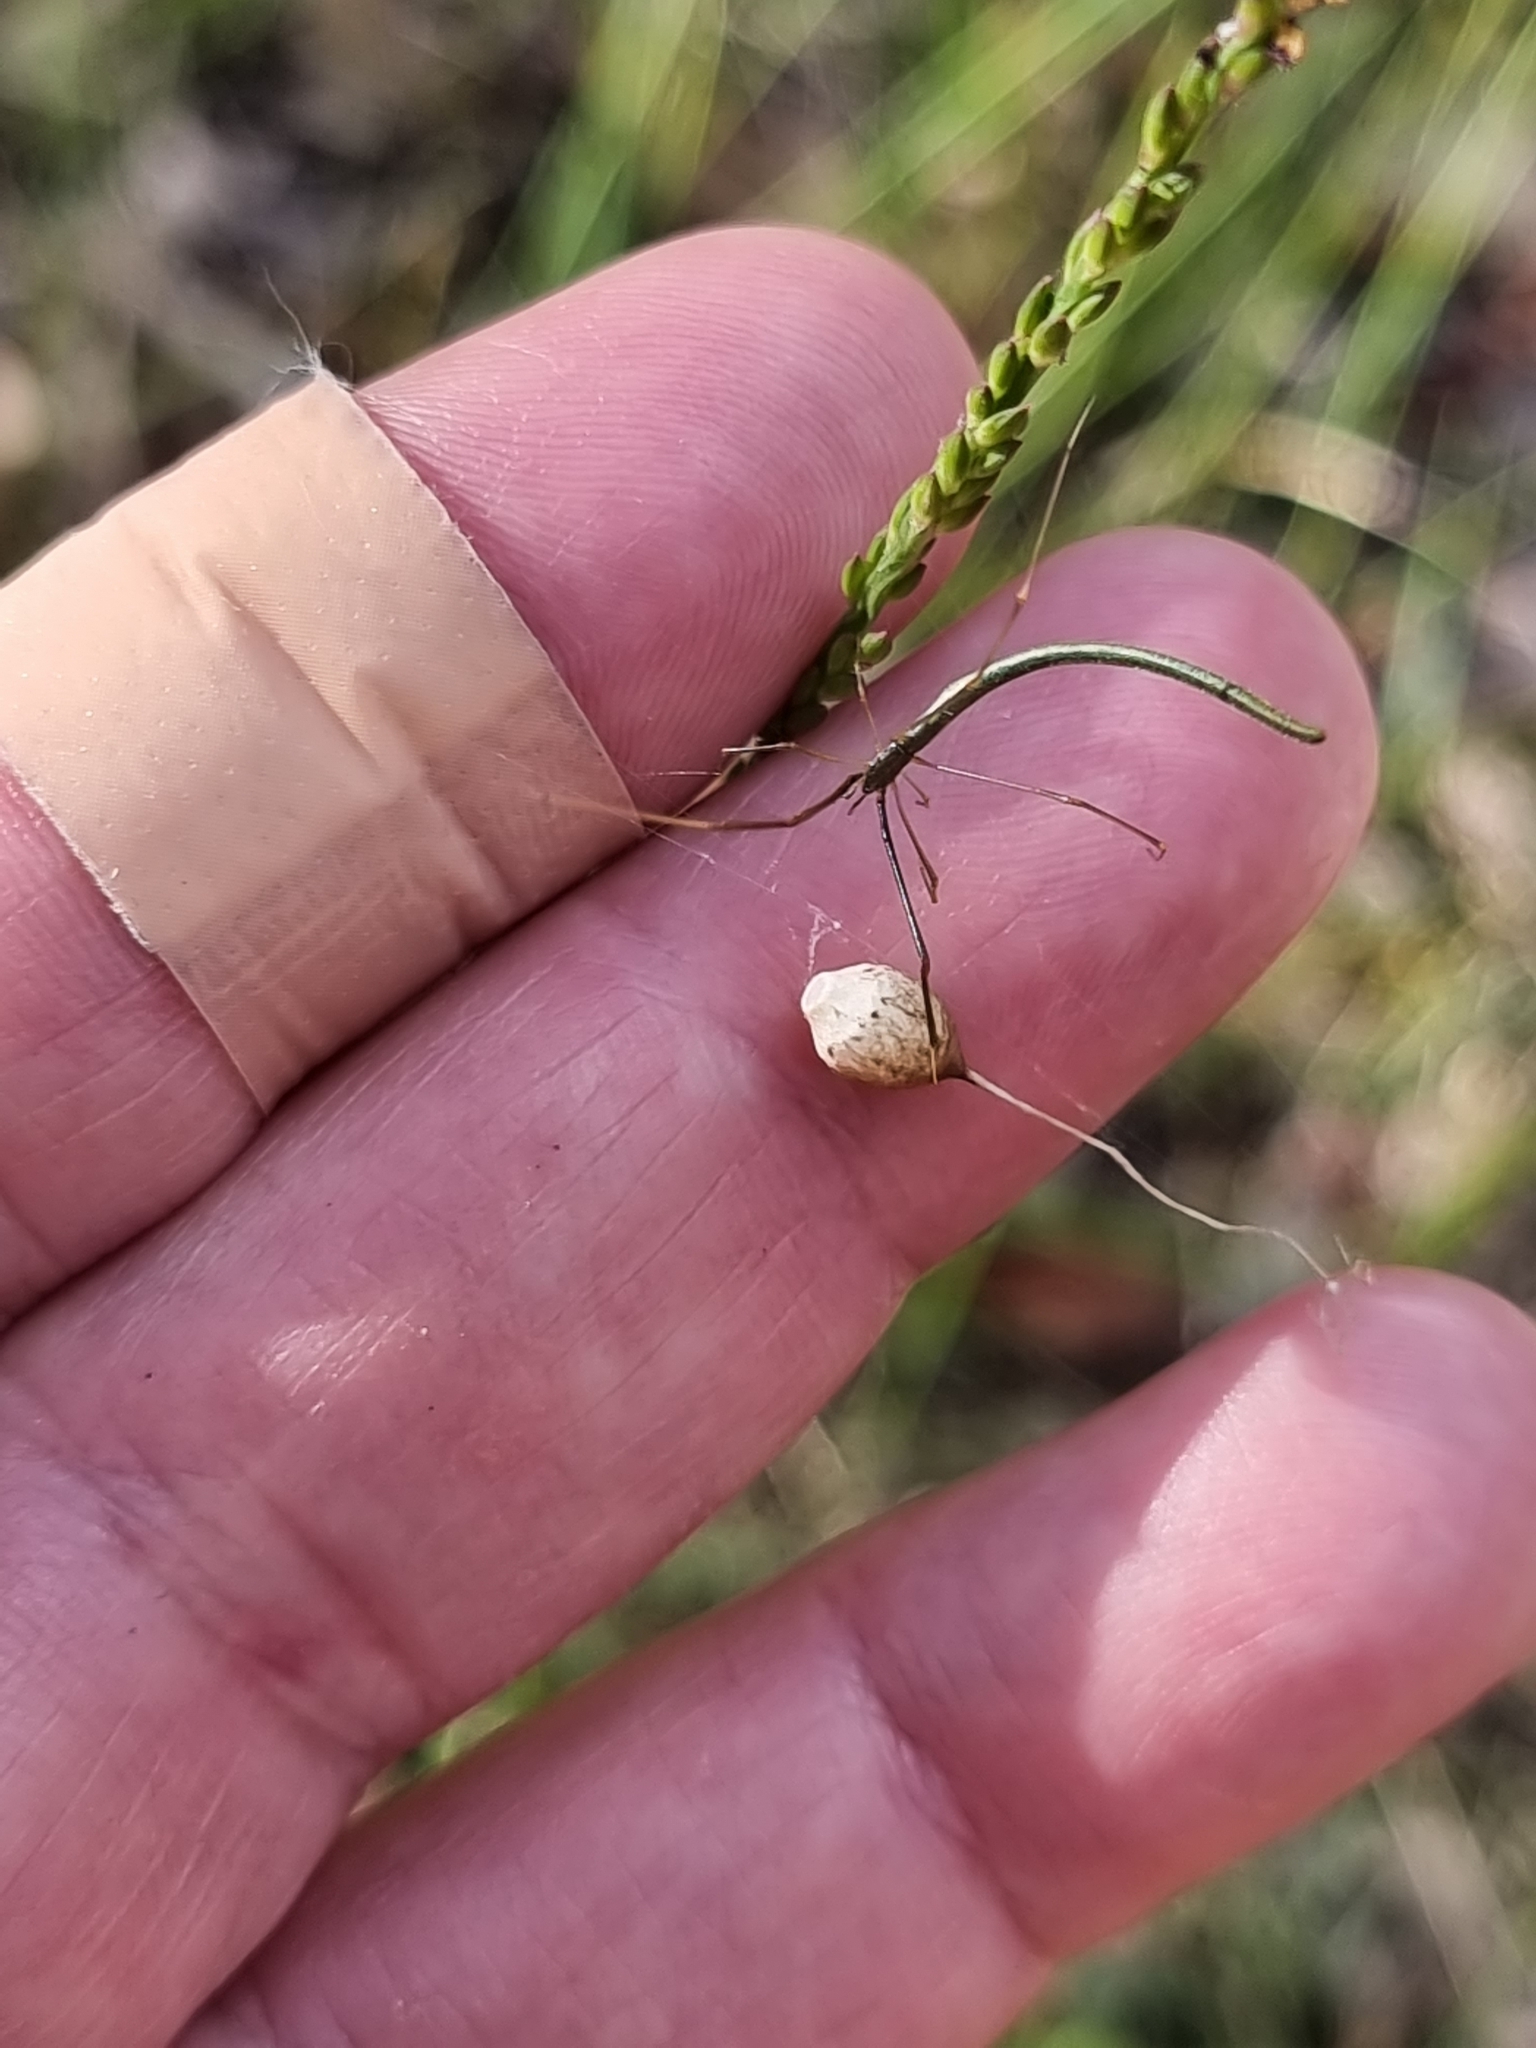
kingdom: Animalia
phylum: Arthropoda
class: Arachnida
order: Araneae
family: Theridiidae
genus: Ariamnes
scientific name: Ariamnes colubrinus
